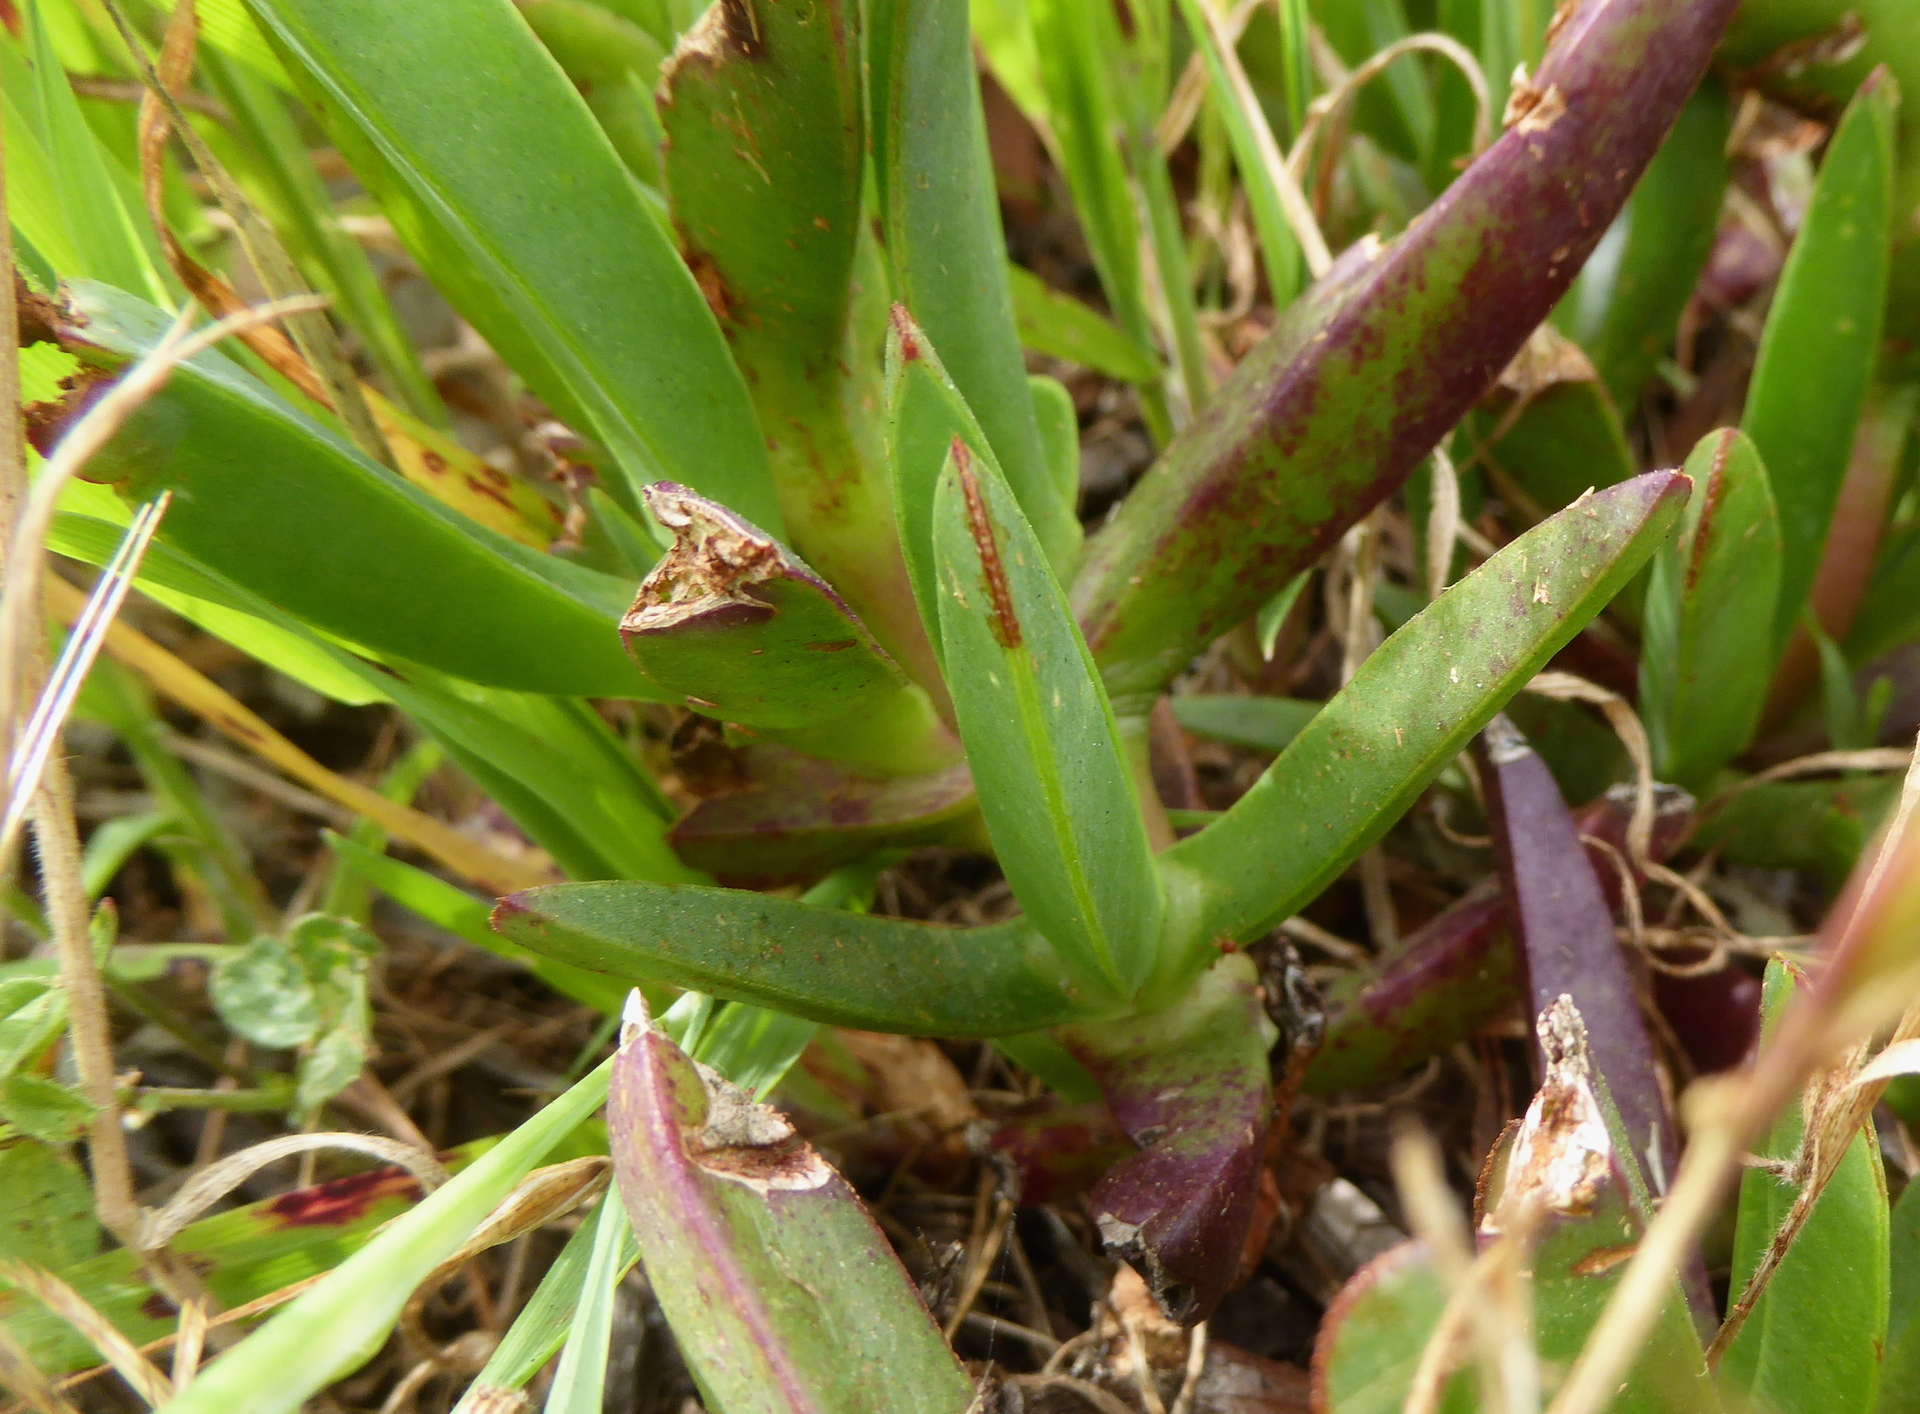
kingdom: Plantae
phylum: Tracheophyta
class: Magnoliopsida
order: Caryophyllales
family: Aizoaceae
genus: Carpobrotus
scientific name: Carpobrotus edulis
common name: Hottentot-fig
